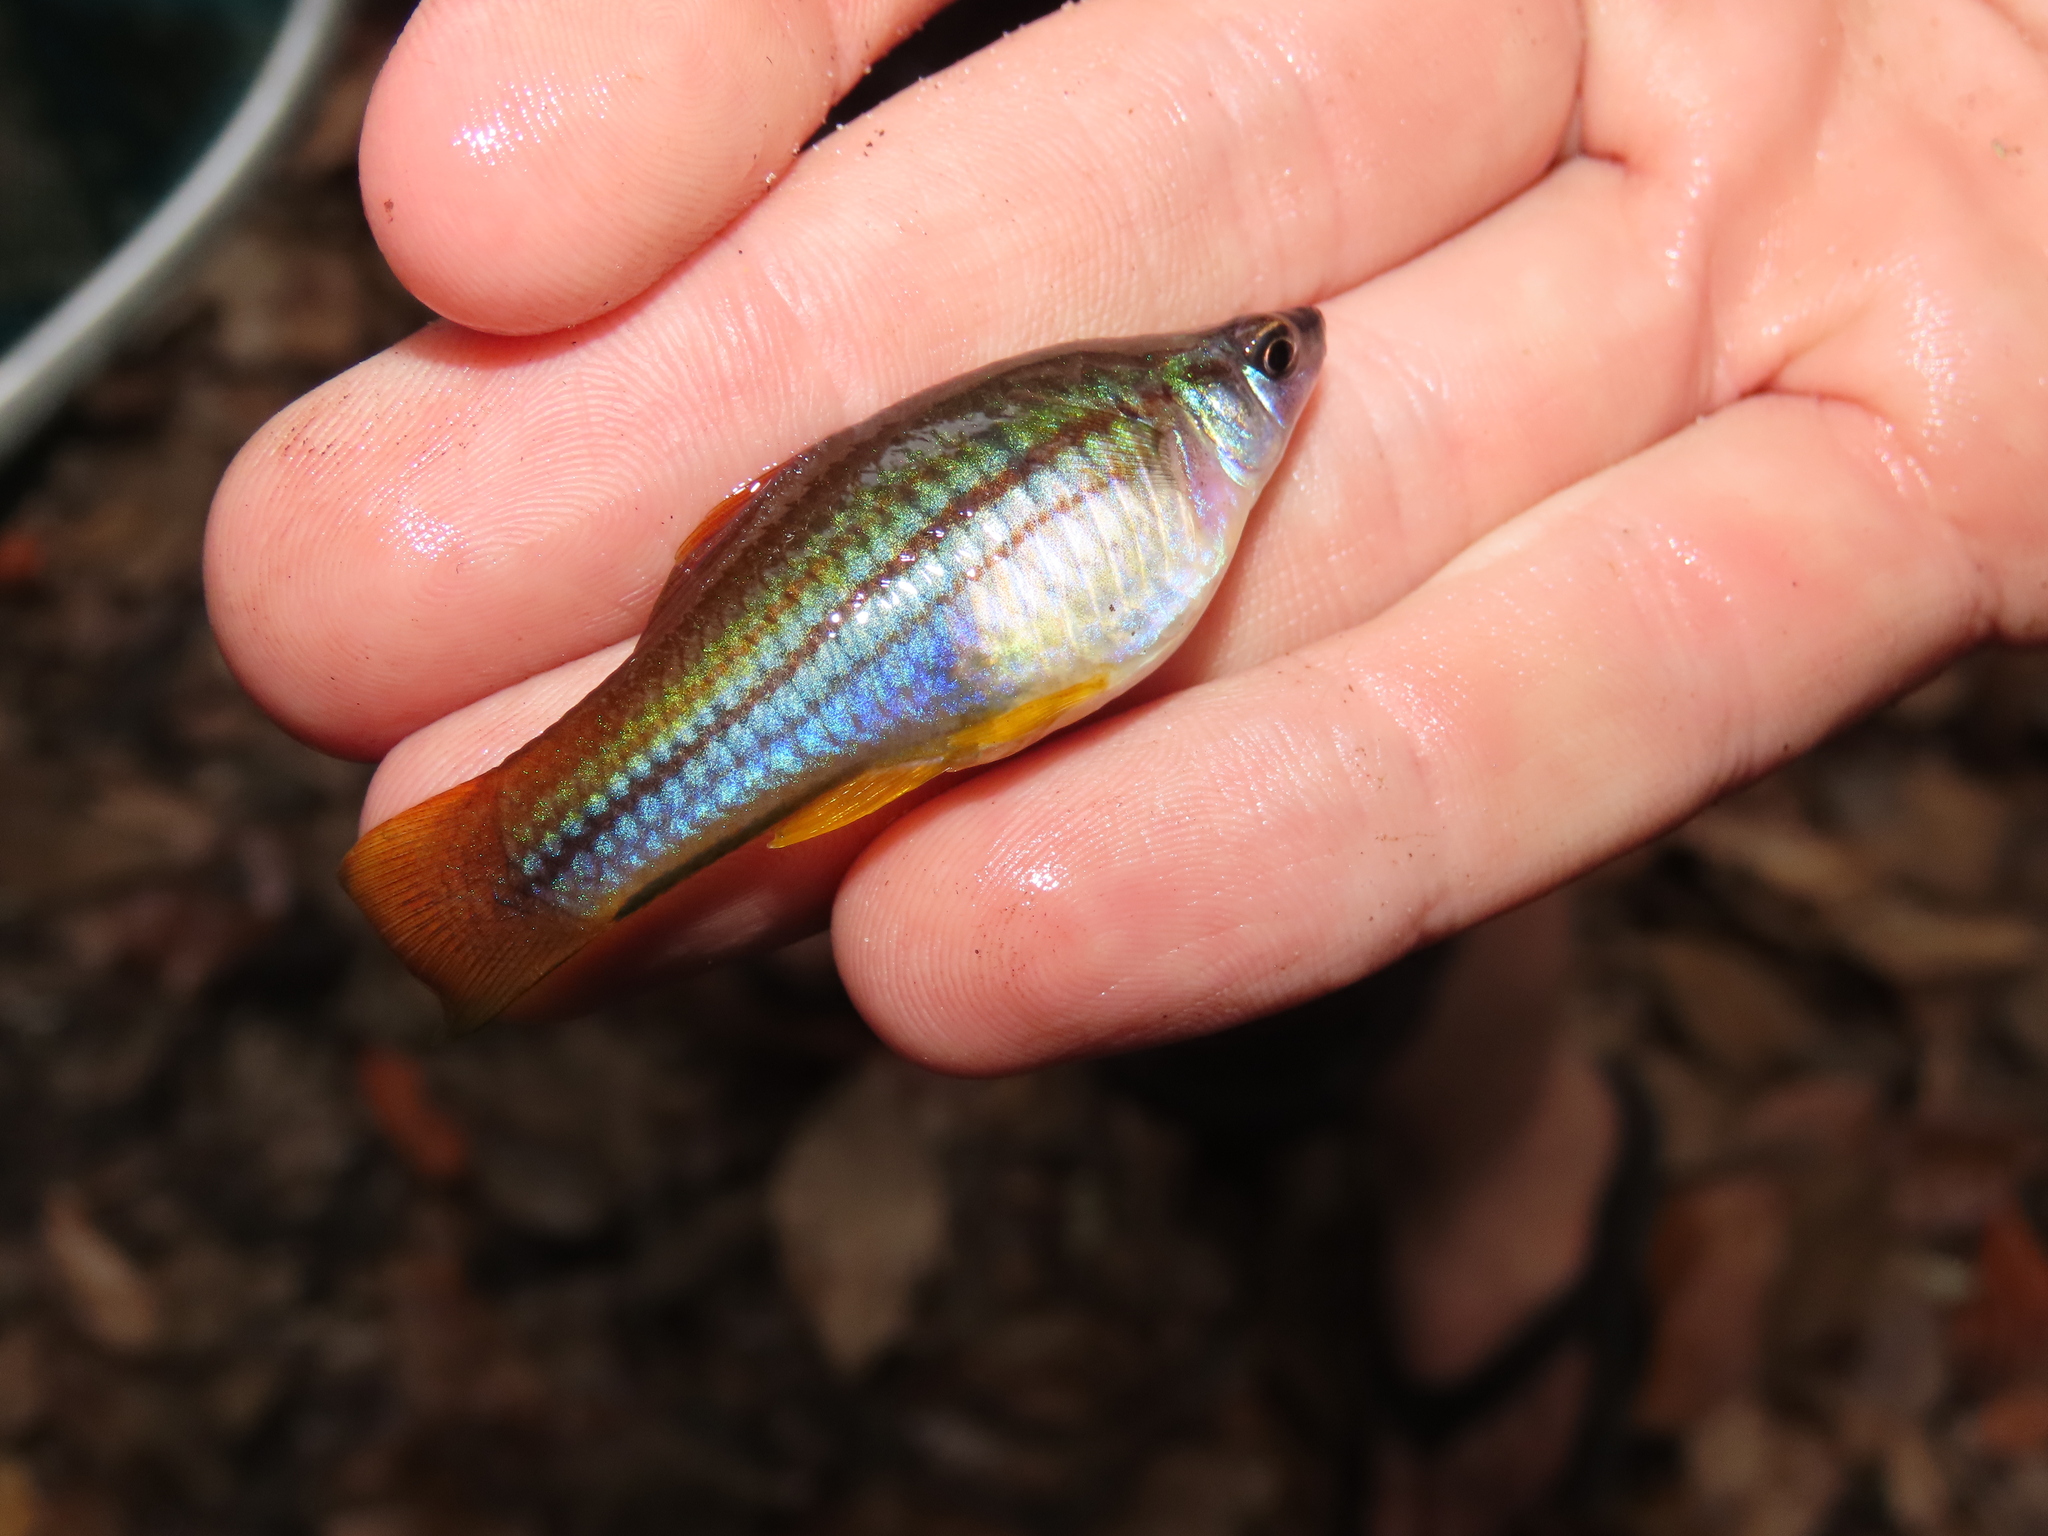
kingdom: Animalia
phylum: Chordata
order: Cyprinodontiformes
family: Poeciliidae
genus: Xiphophorus
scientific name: Xiphophorus hellerii
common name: Green swordtail
